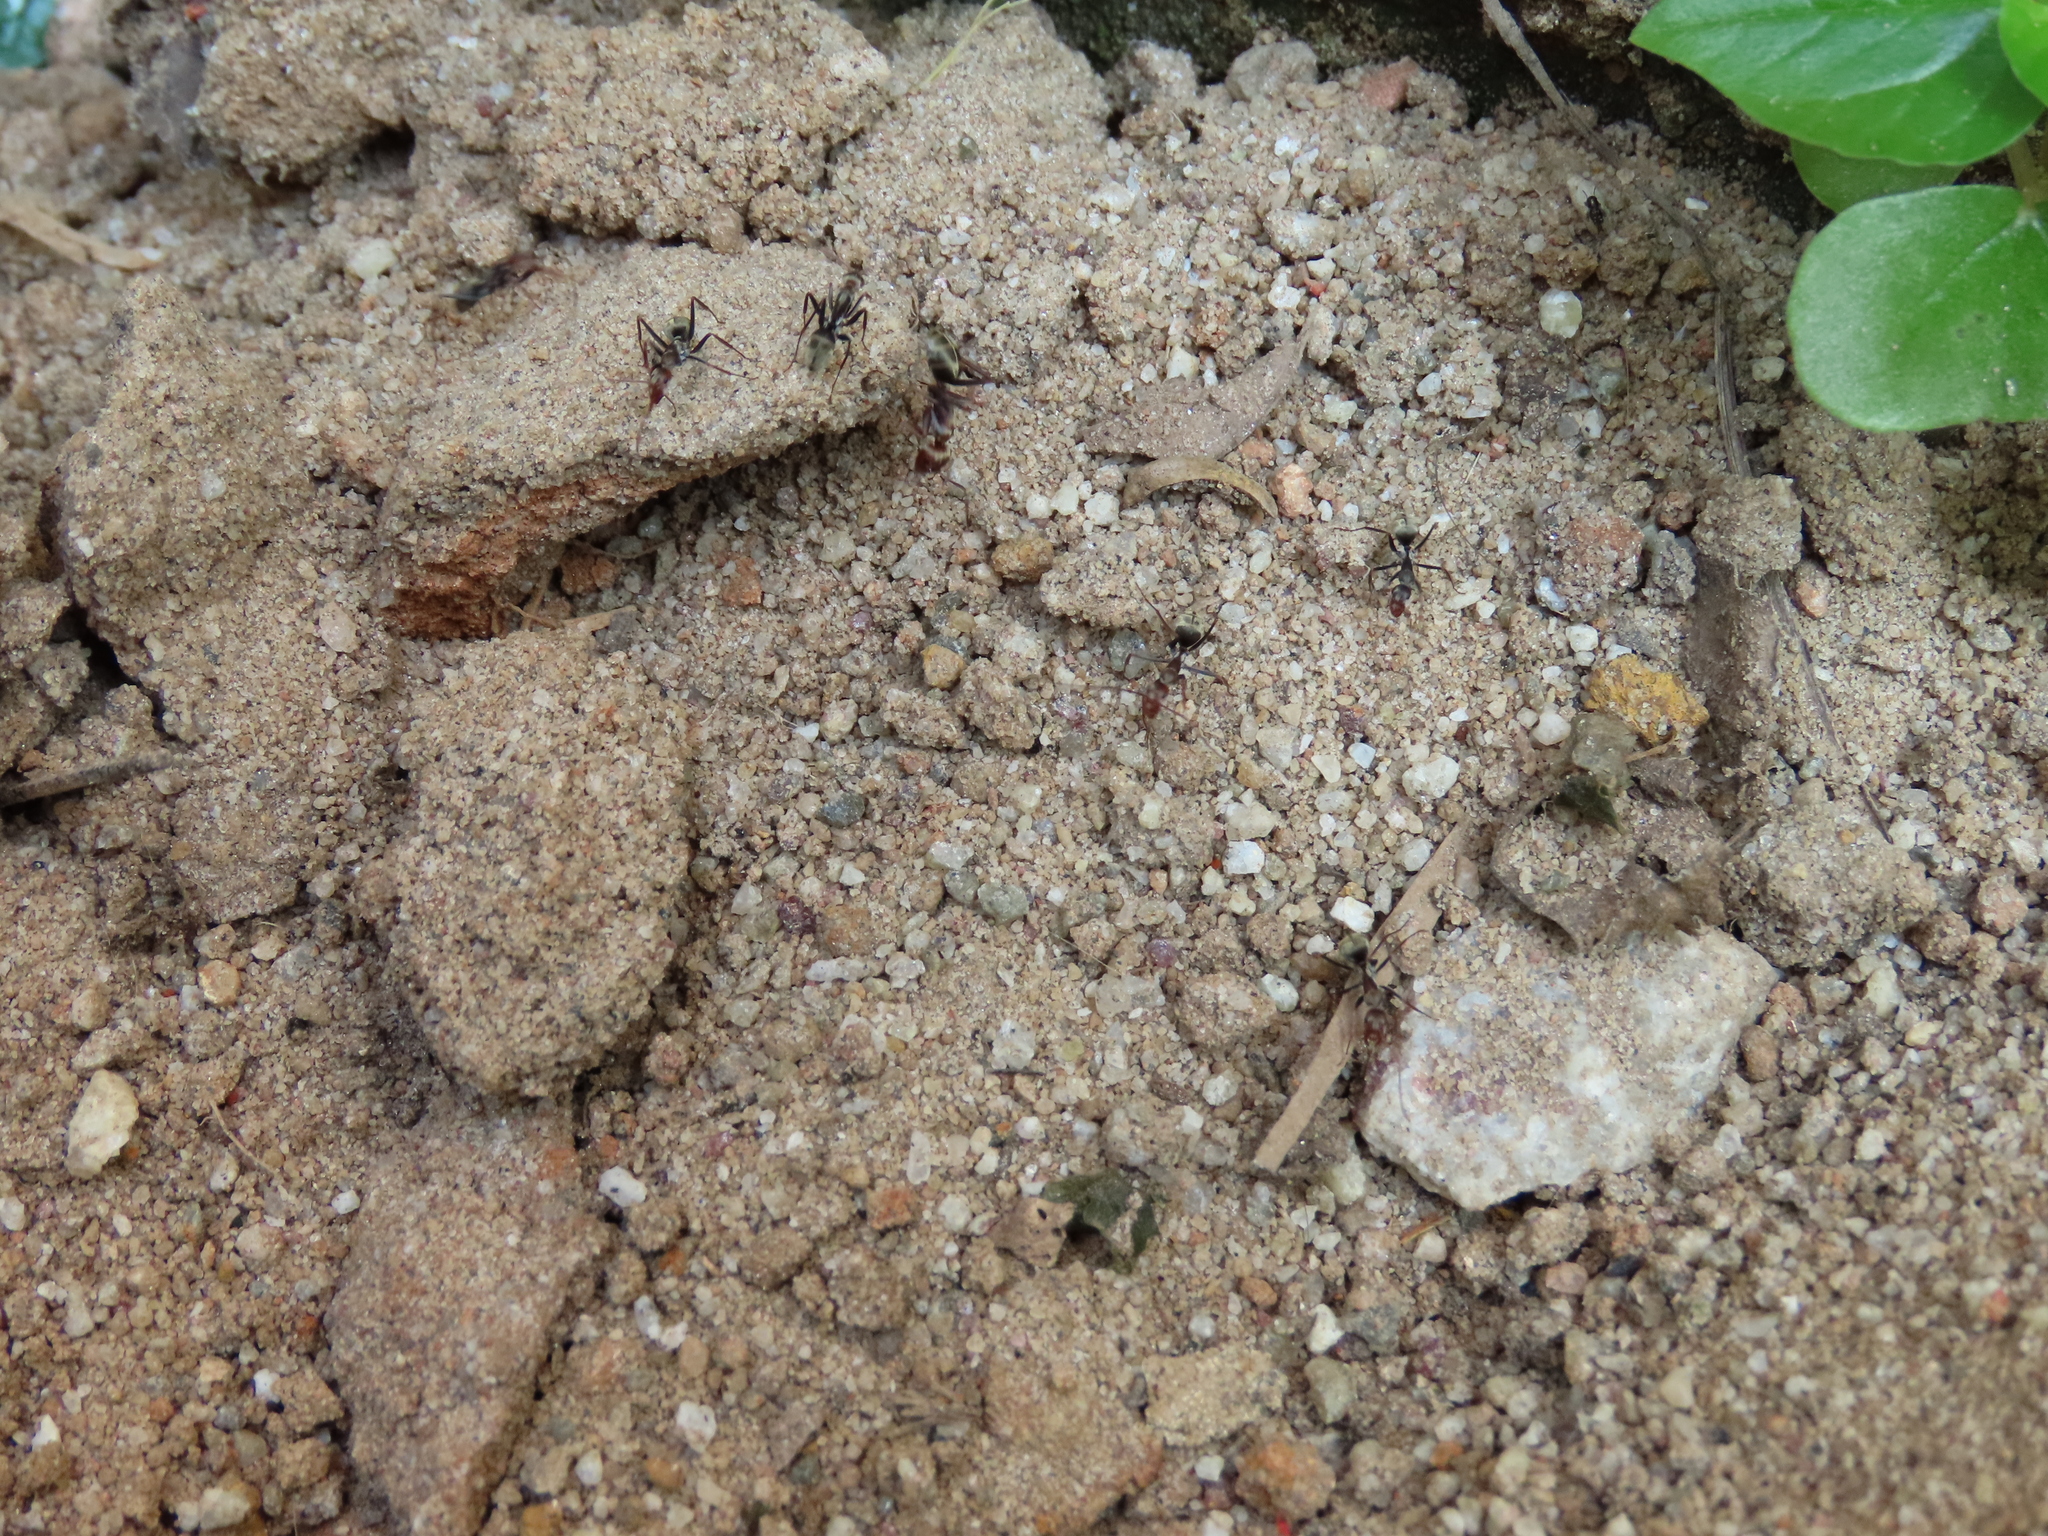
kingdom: Animalia
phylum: Arthropoda
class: Insecta
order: Hymenoptera
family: Formicidae
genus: Camponotus
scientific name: Camponotus rufoglaucus
